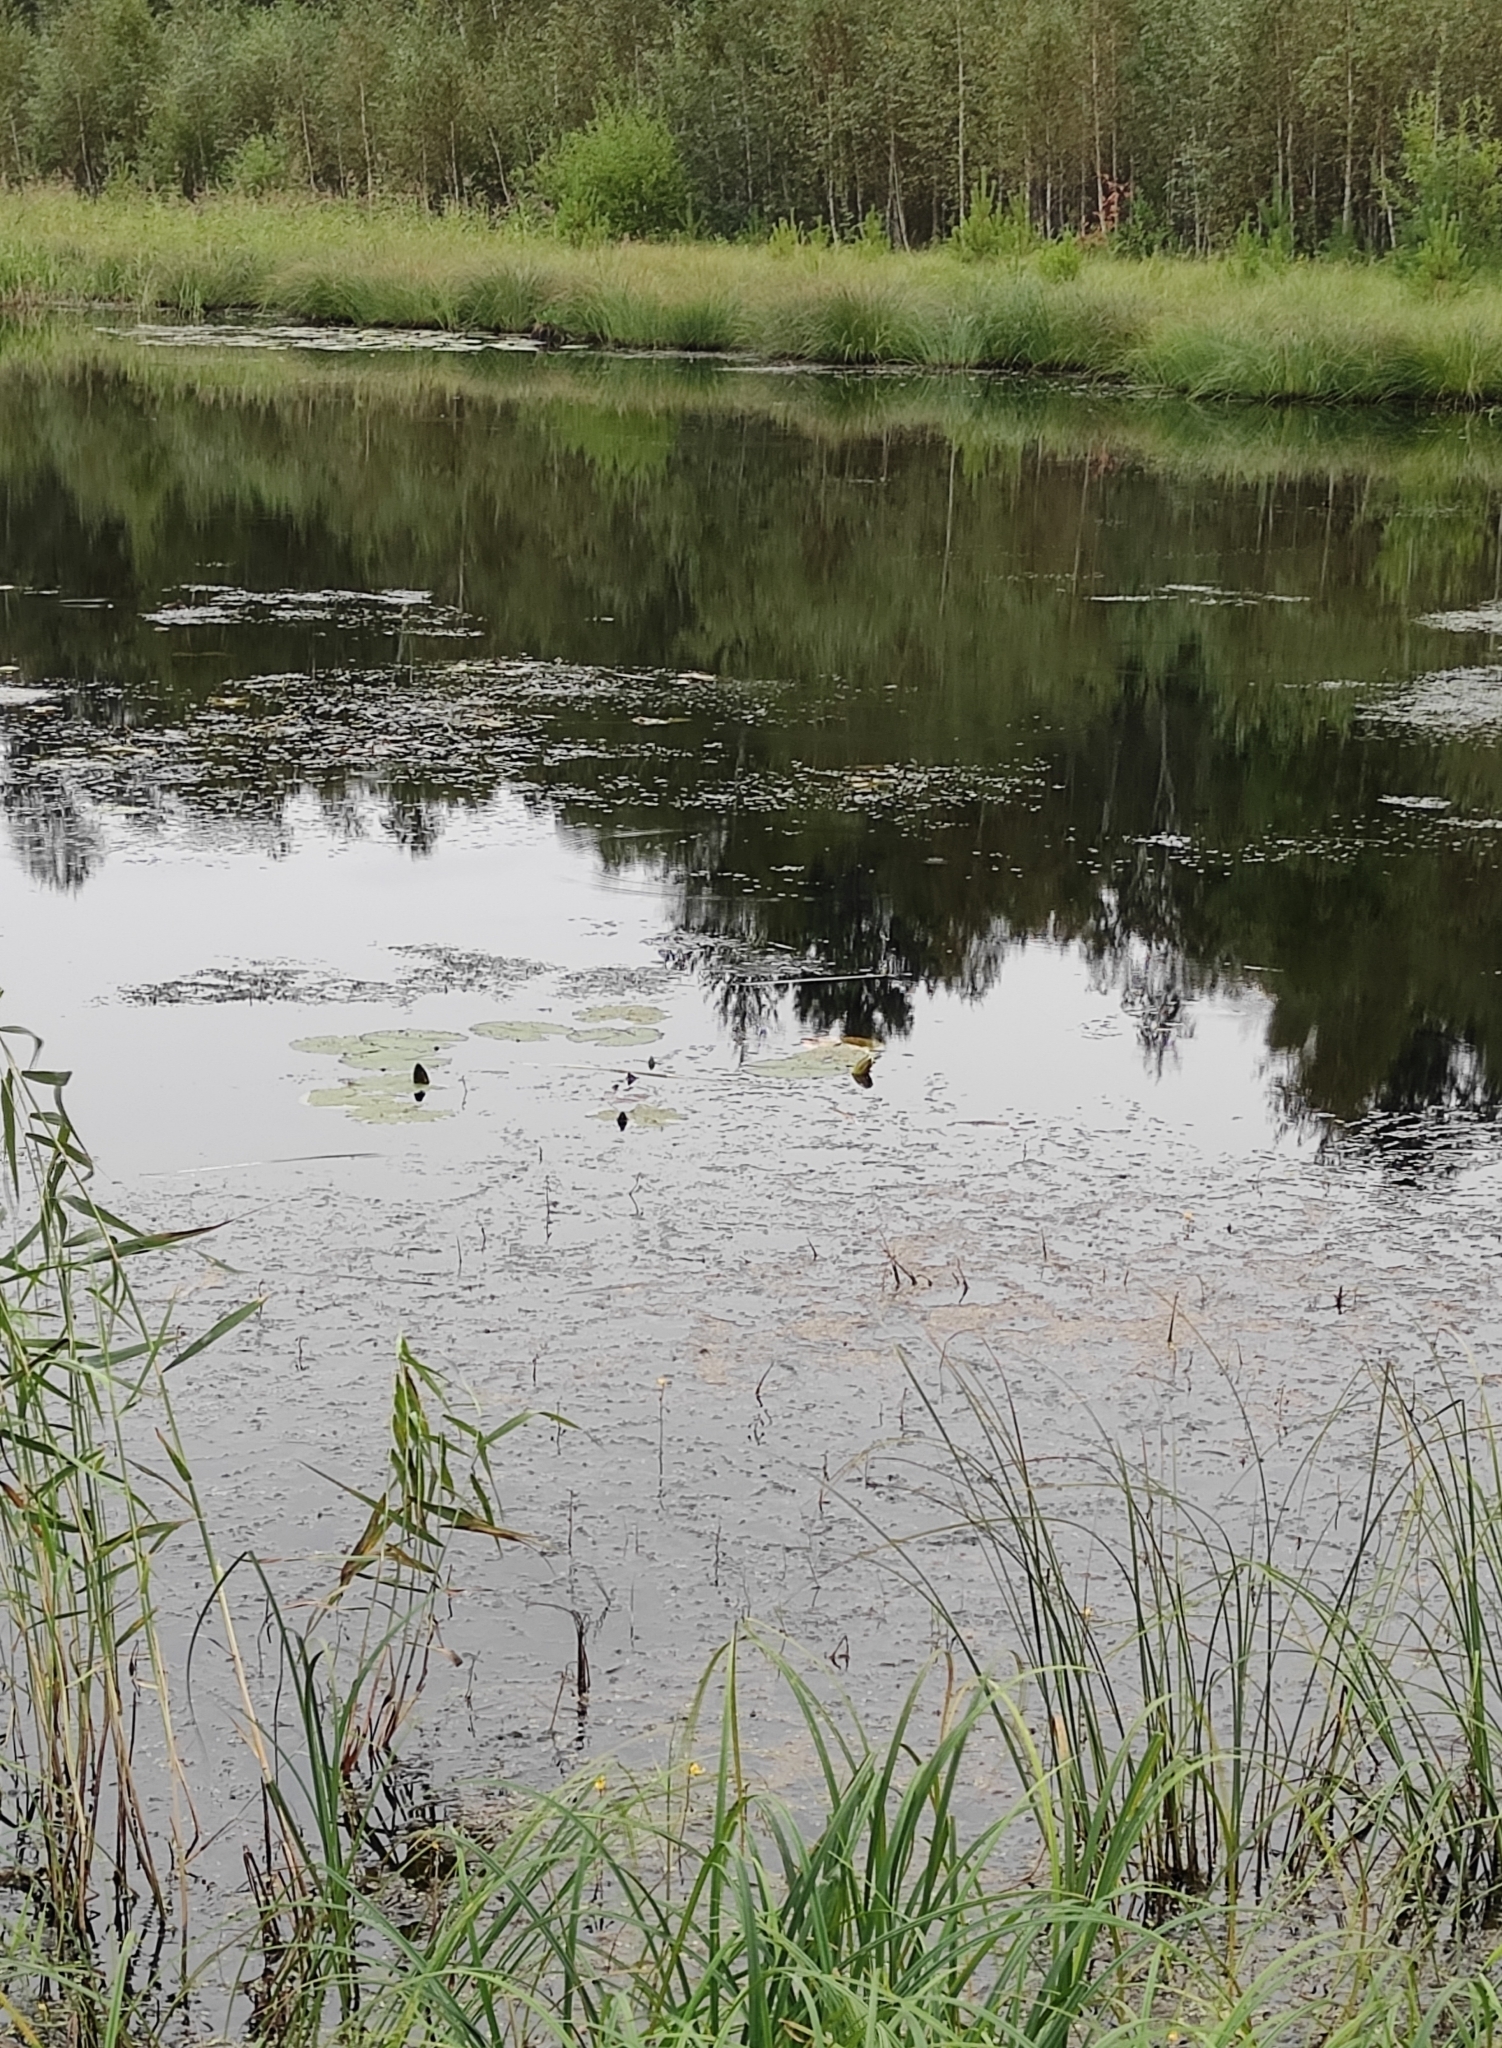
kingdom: Plantae
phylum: Tracheophyta
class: Magnoliopsida
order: Nymphaeales
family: Nymphaeaceae
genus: Nymphaea
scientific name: Nymphaea candida
